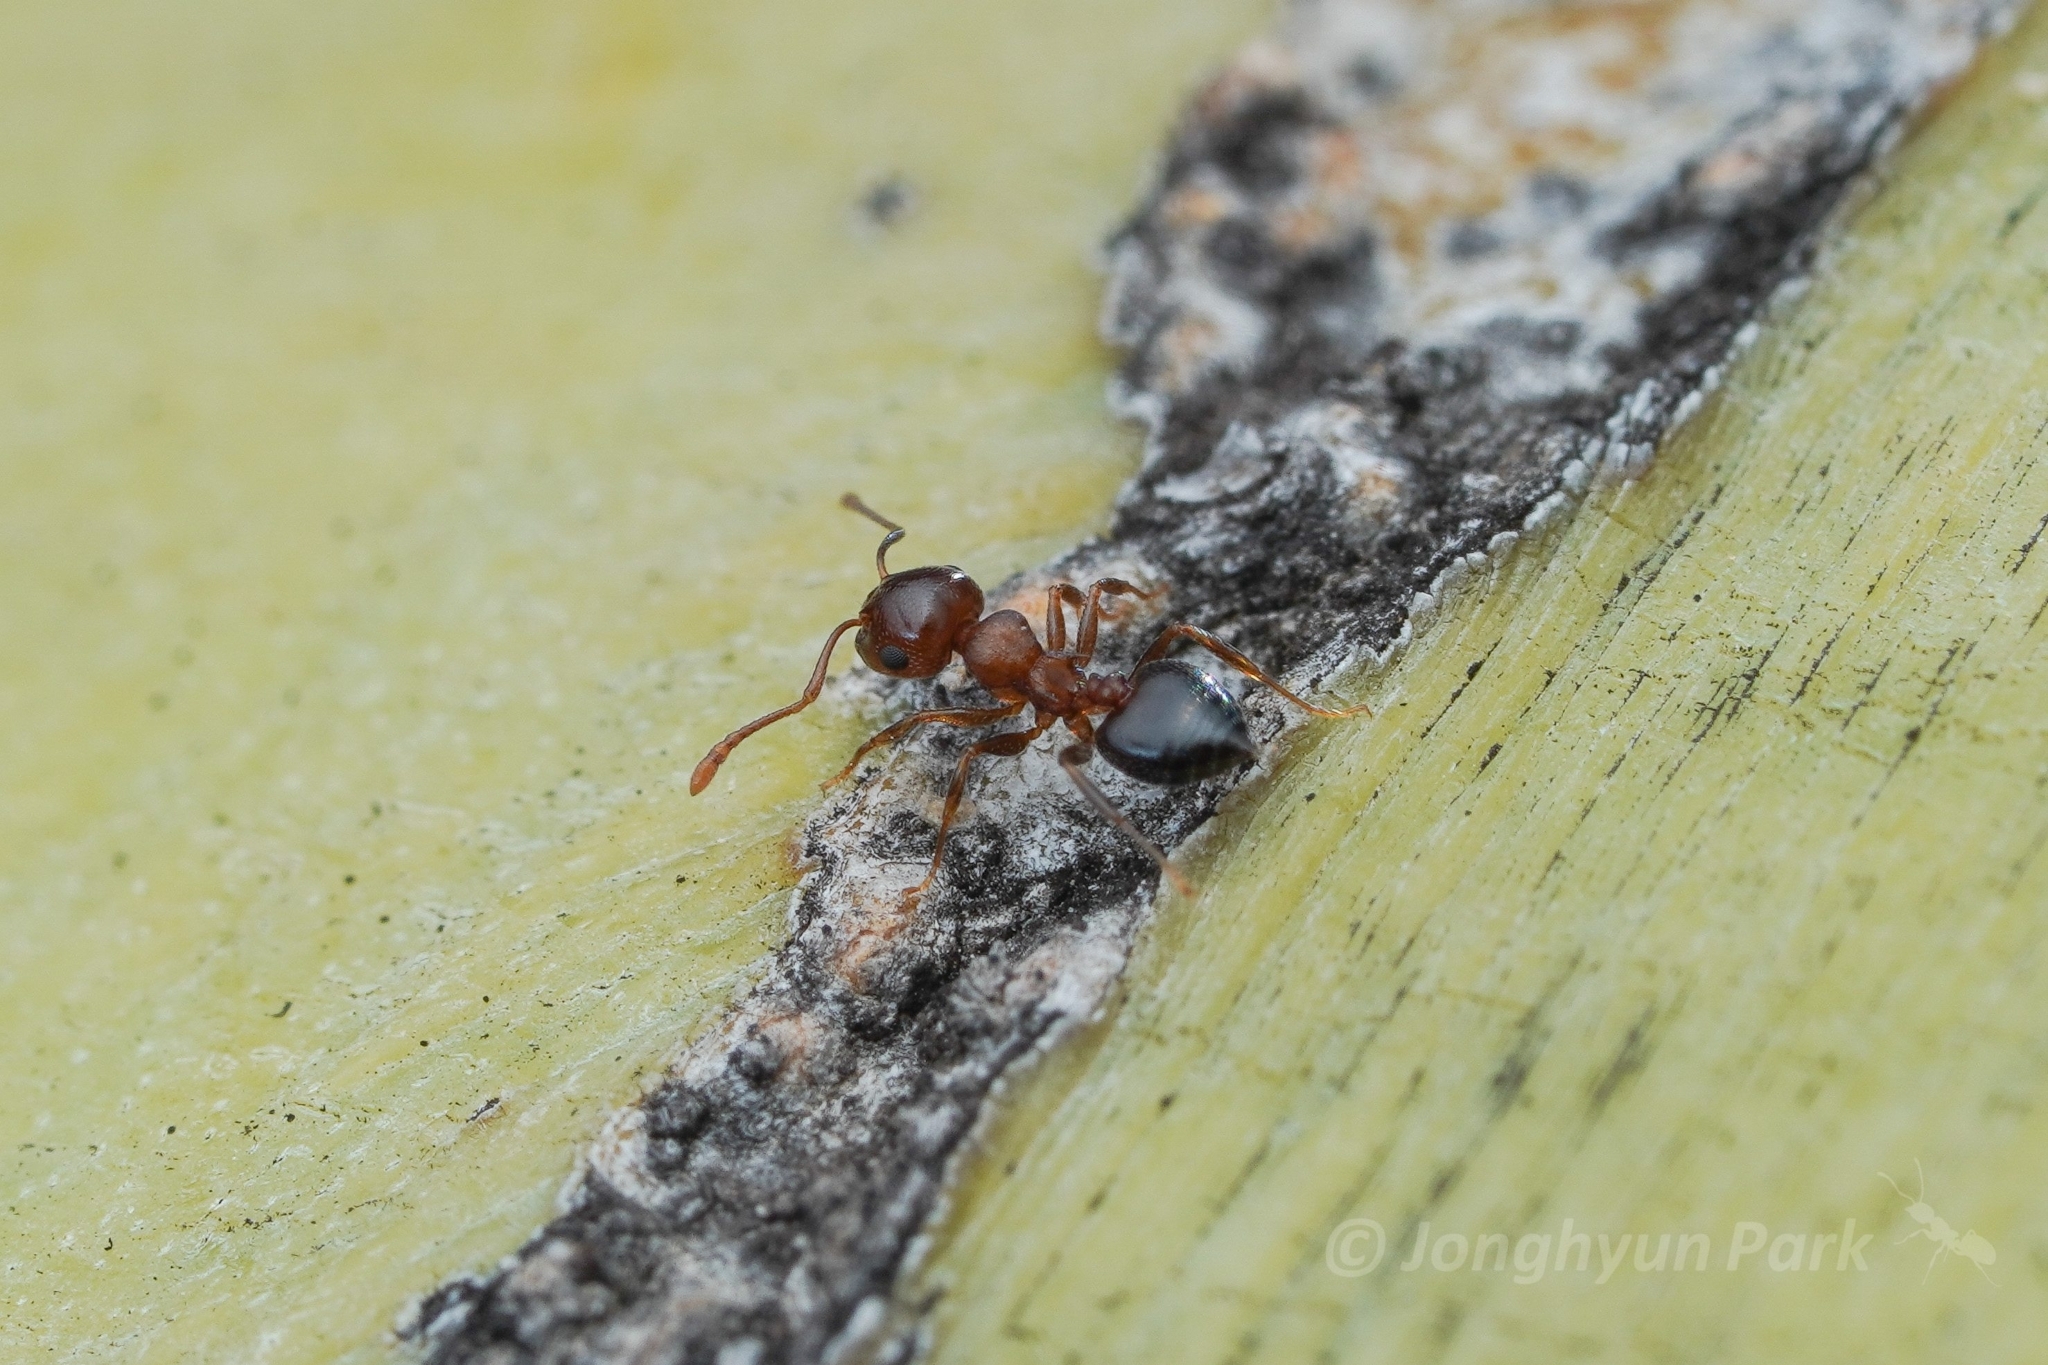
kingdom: Animalia
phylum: Arthropoda
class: Insecta
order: Hymenoptera
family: Formicidae
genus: Crematogaster
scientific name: Crematogaster depilis
